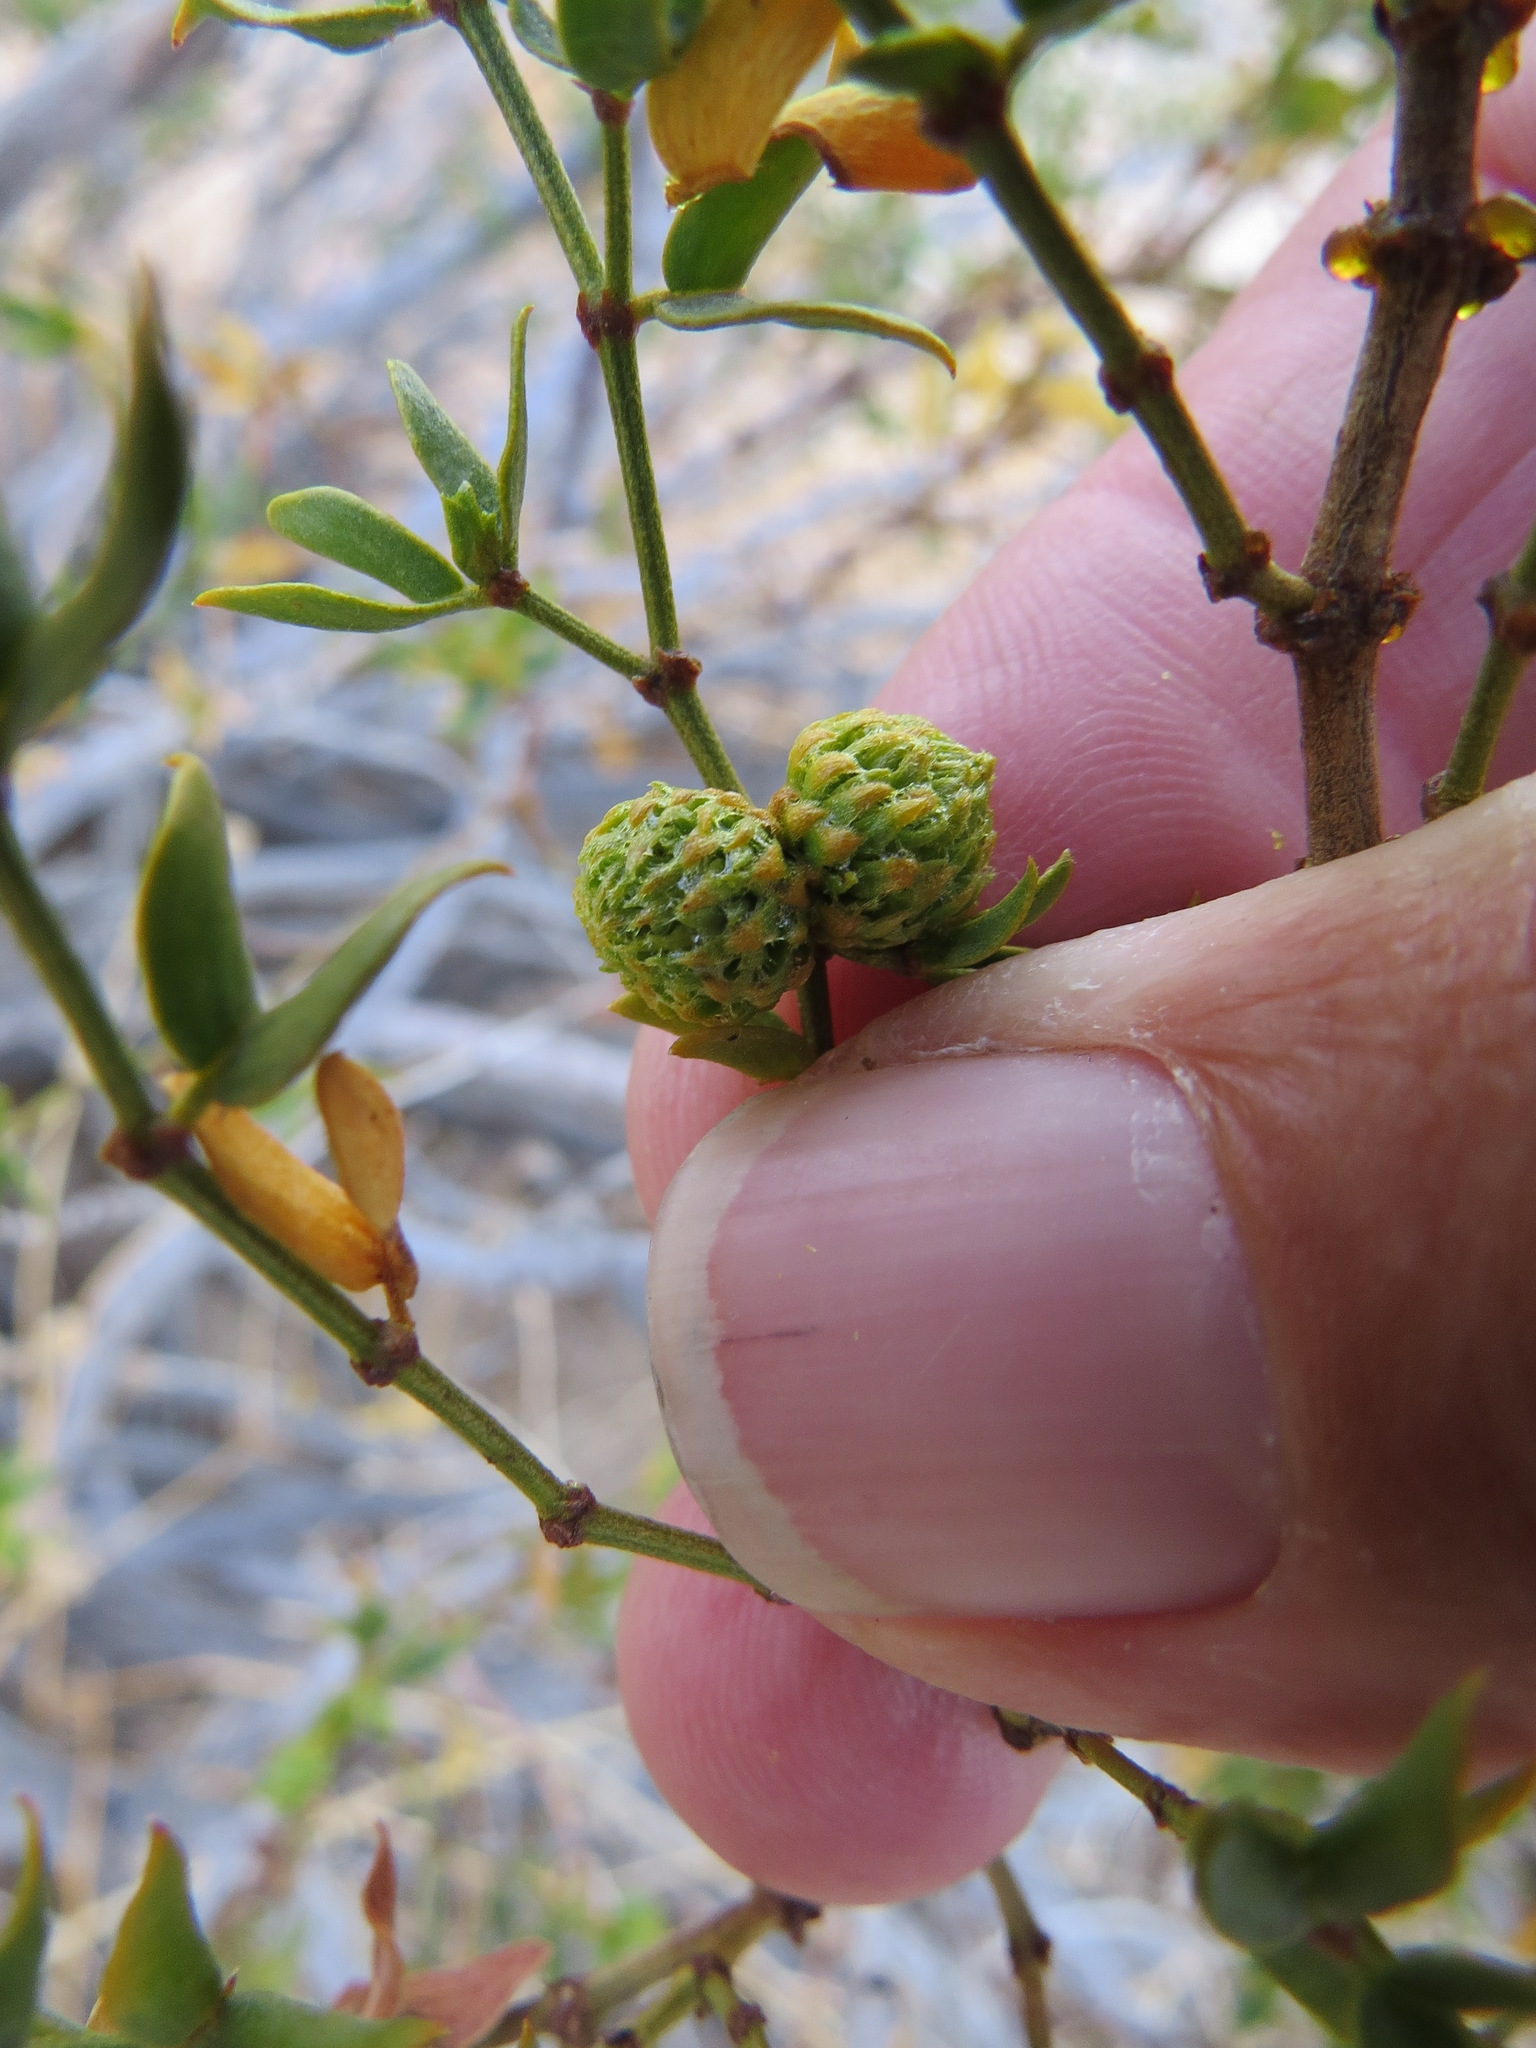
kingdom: Animalia
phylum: Arthropoda
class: Insecta
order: Diptera
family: Cecidomyiidae
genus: Asphondylia
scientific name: Asphondylia resinosa
